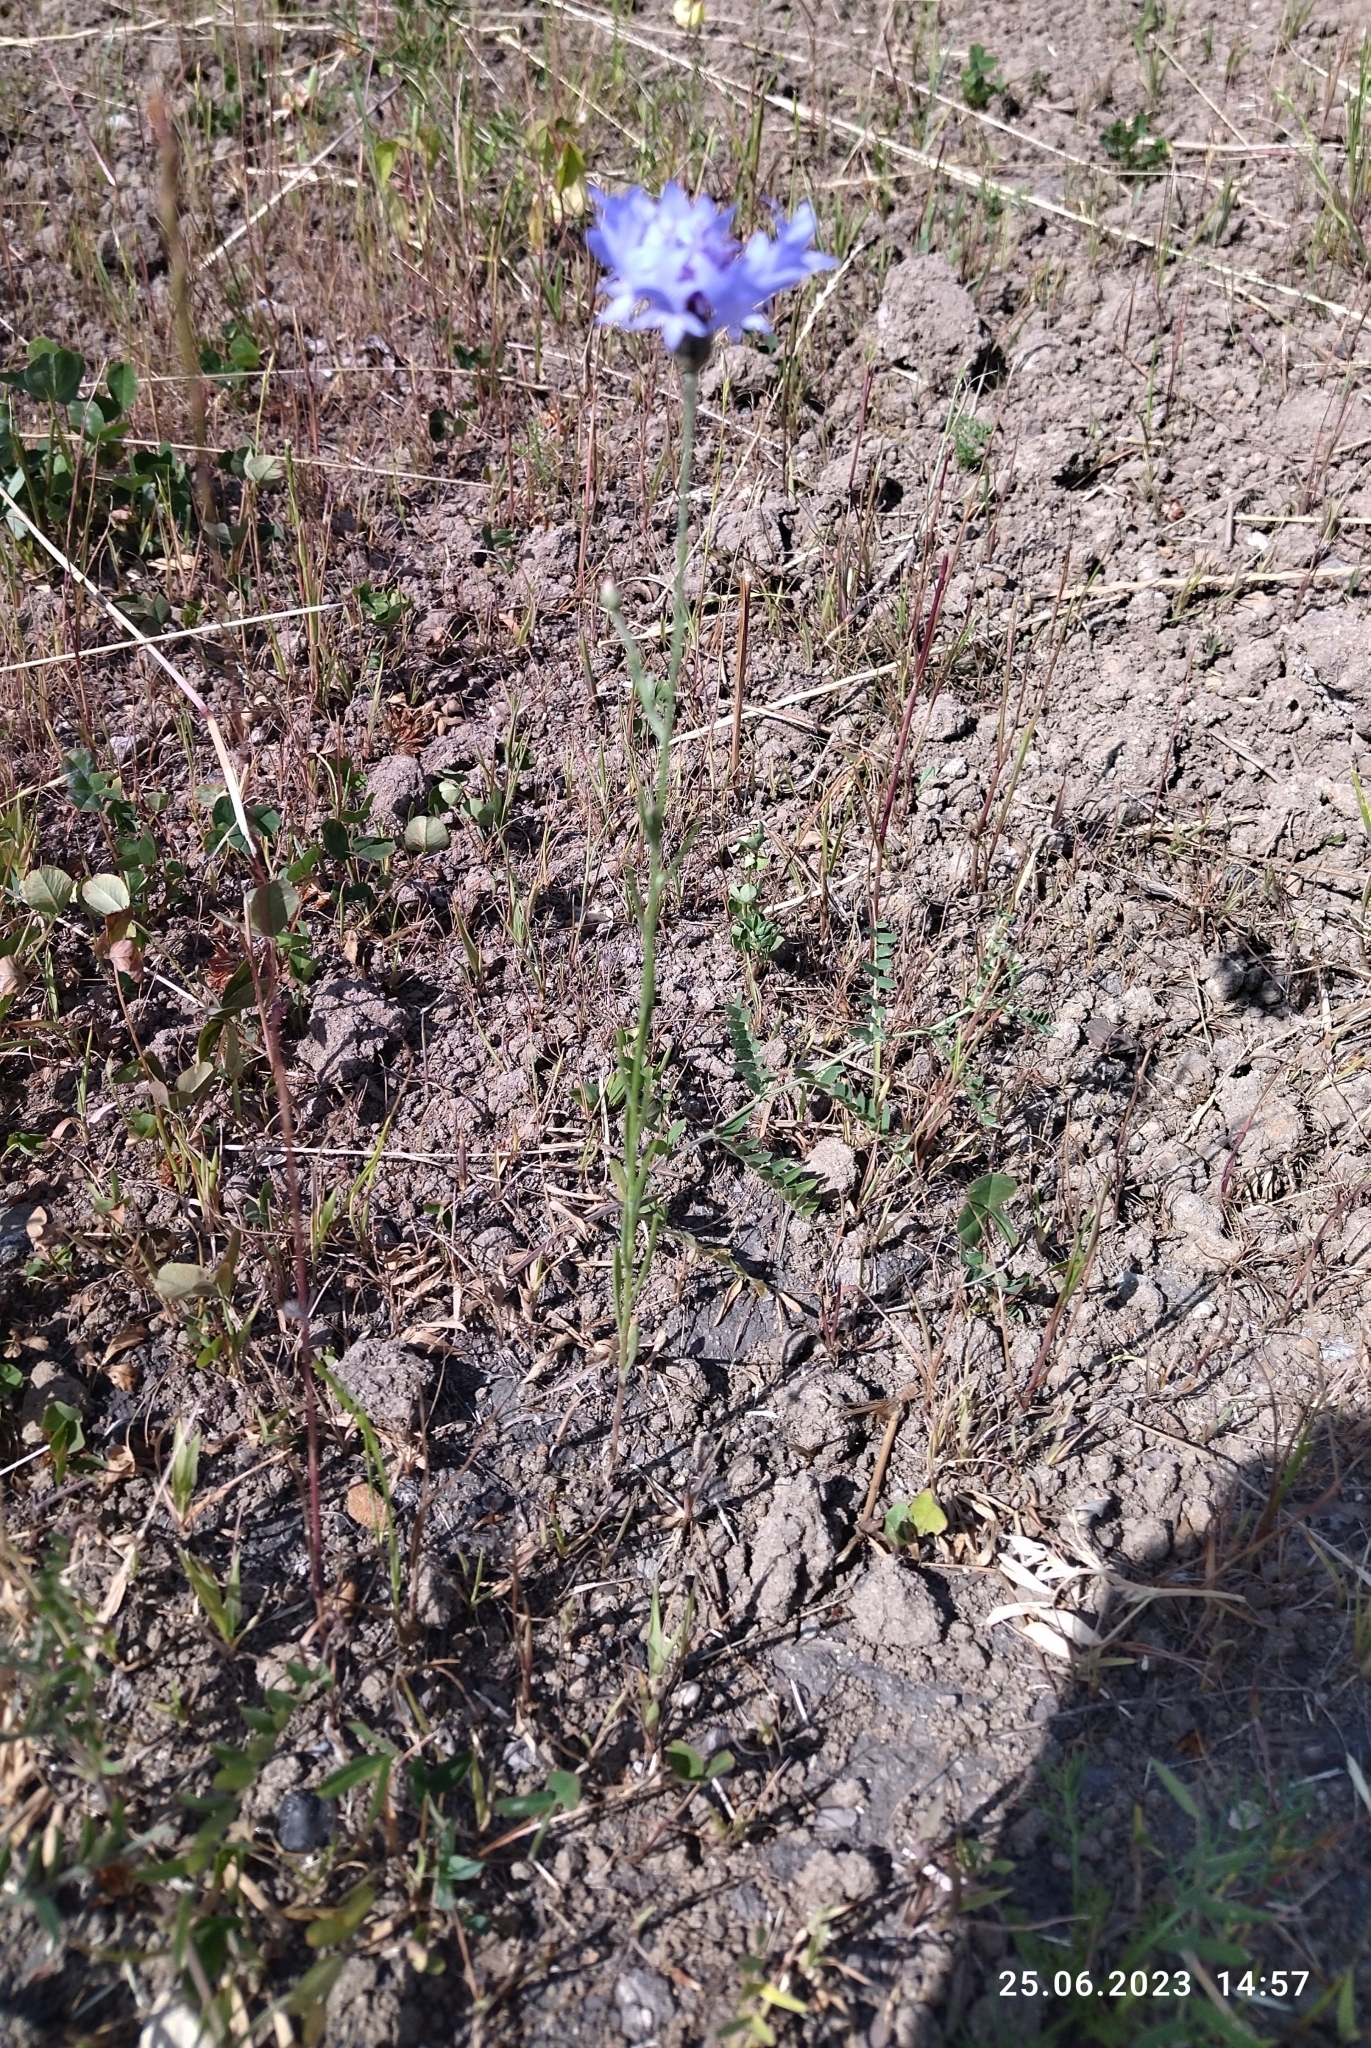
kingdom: Plantae
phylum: Tracheophyta
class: Magnoliopsida
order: Asterales
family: Asteraceae
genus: Centaurea
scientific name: Centaurea cyanus
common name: Cornflower
